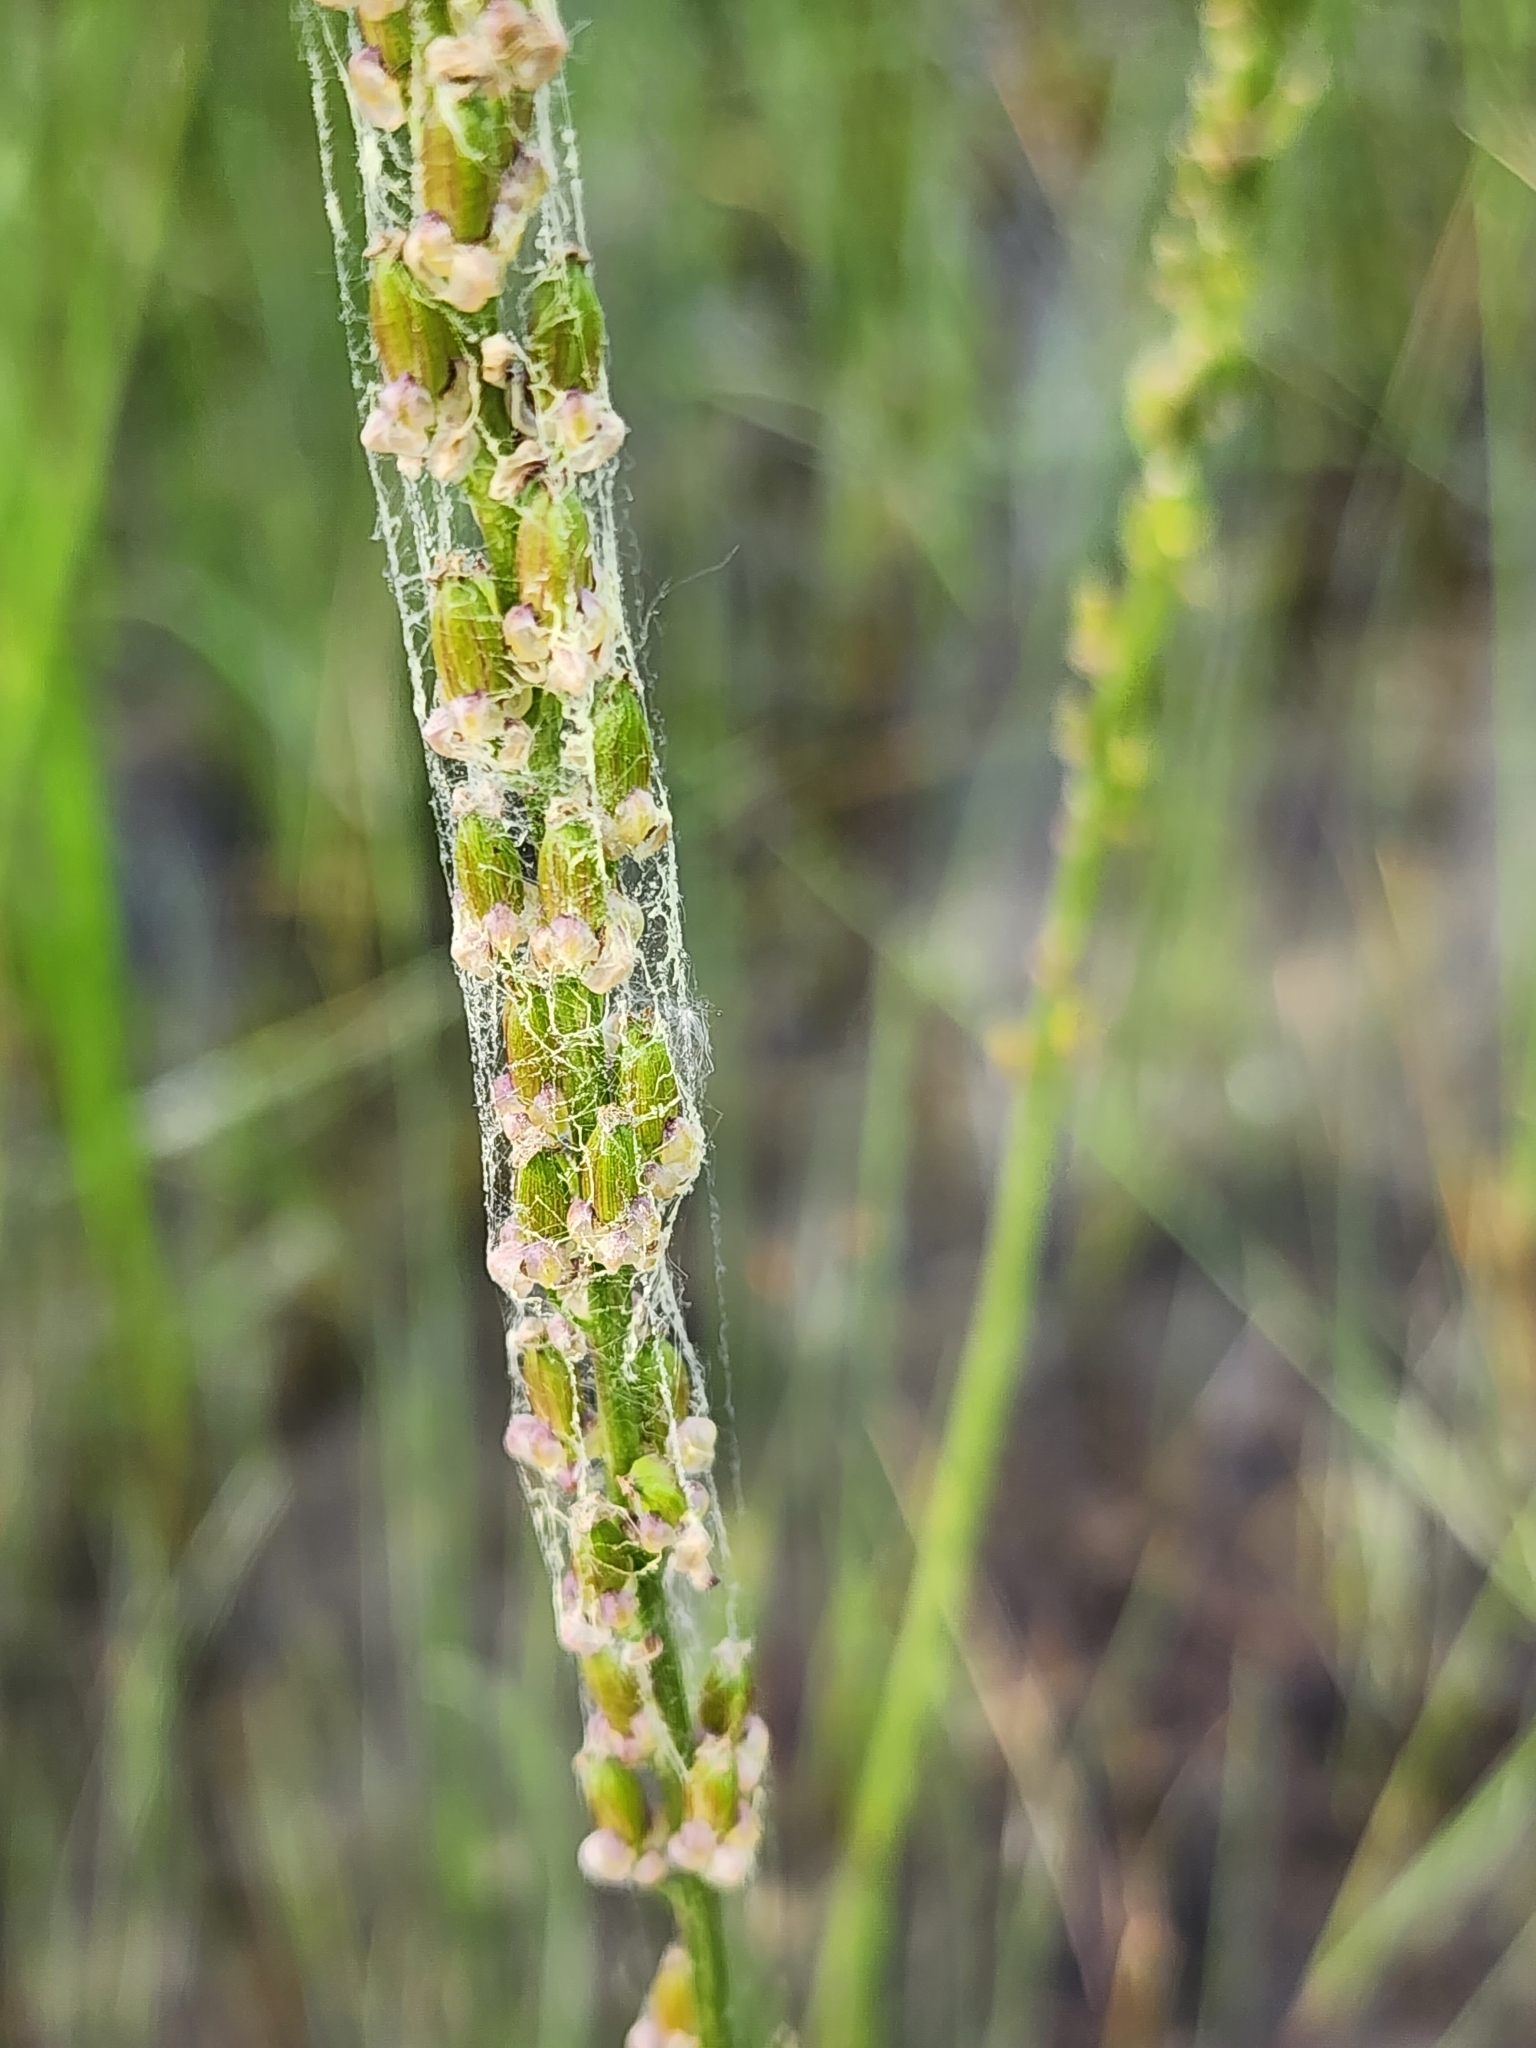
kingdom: Plantae
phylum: Tracheophyta
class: Liliopsida
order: Alismatales
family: Juncaginaceae
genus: Triglochin
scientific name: Triglochin maritima
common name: Sea arrowgrass
